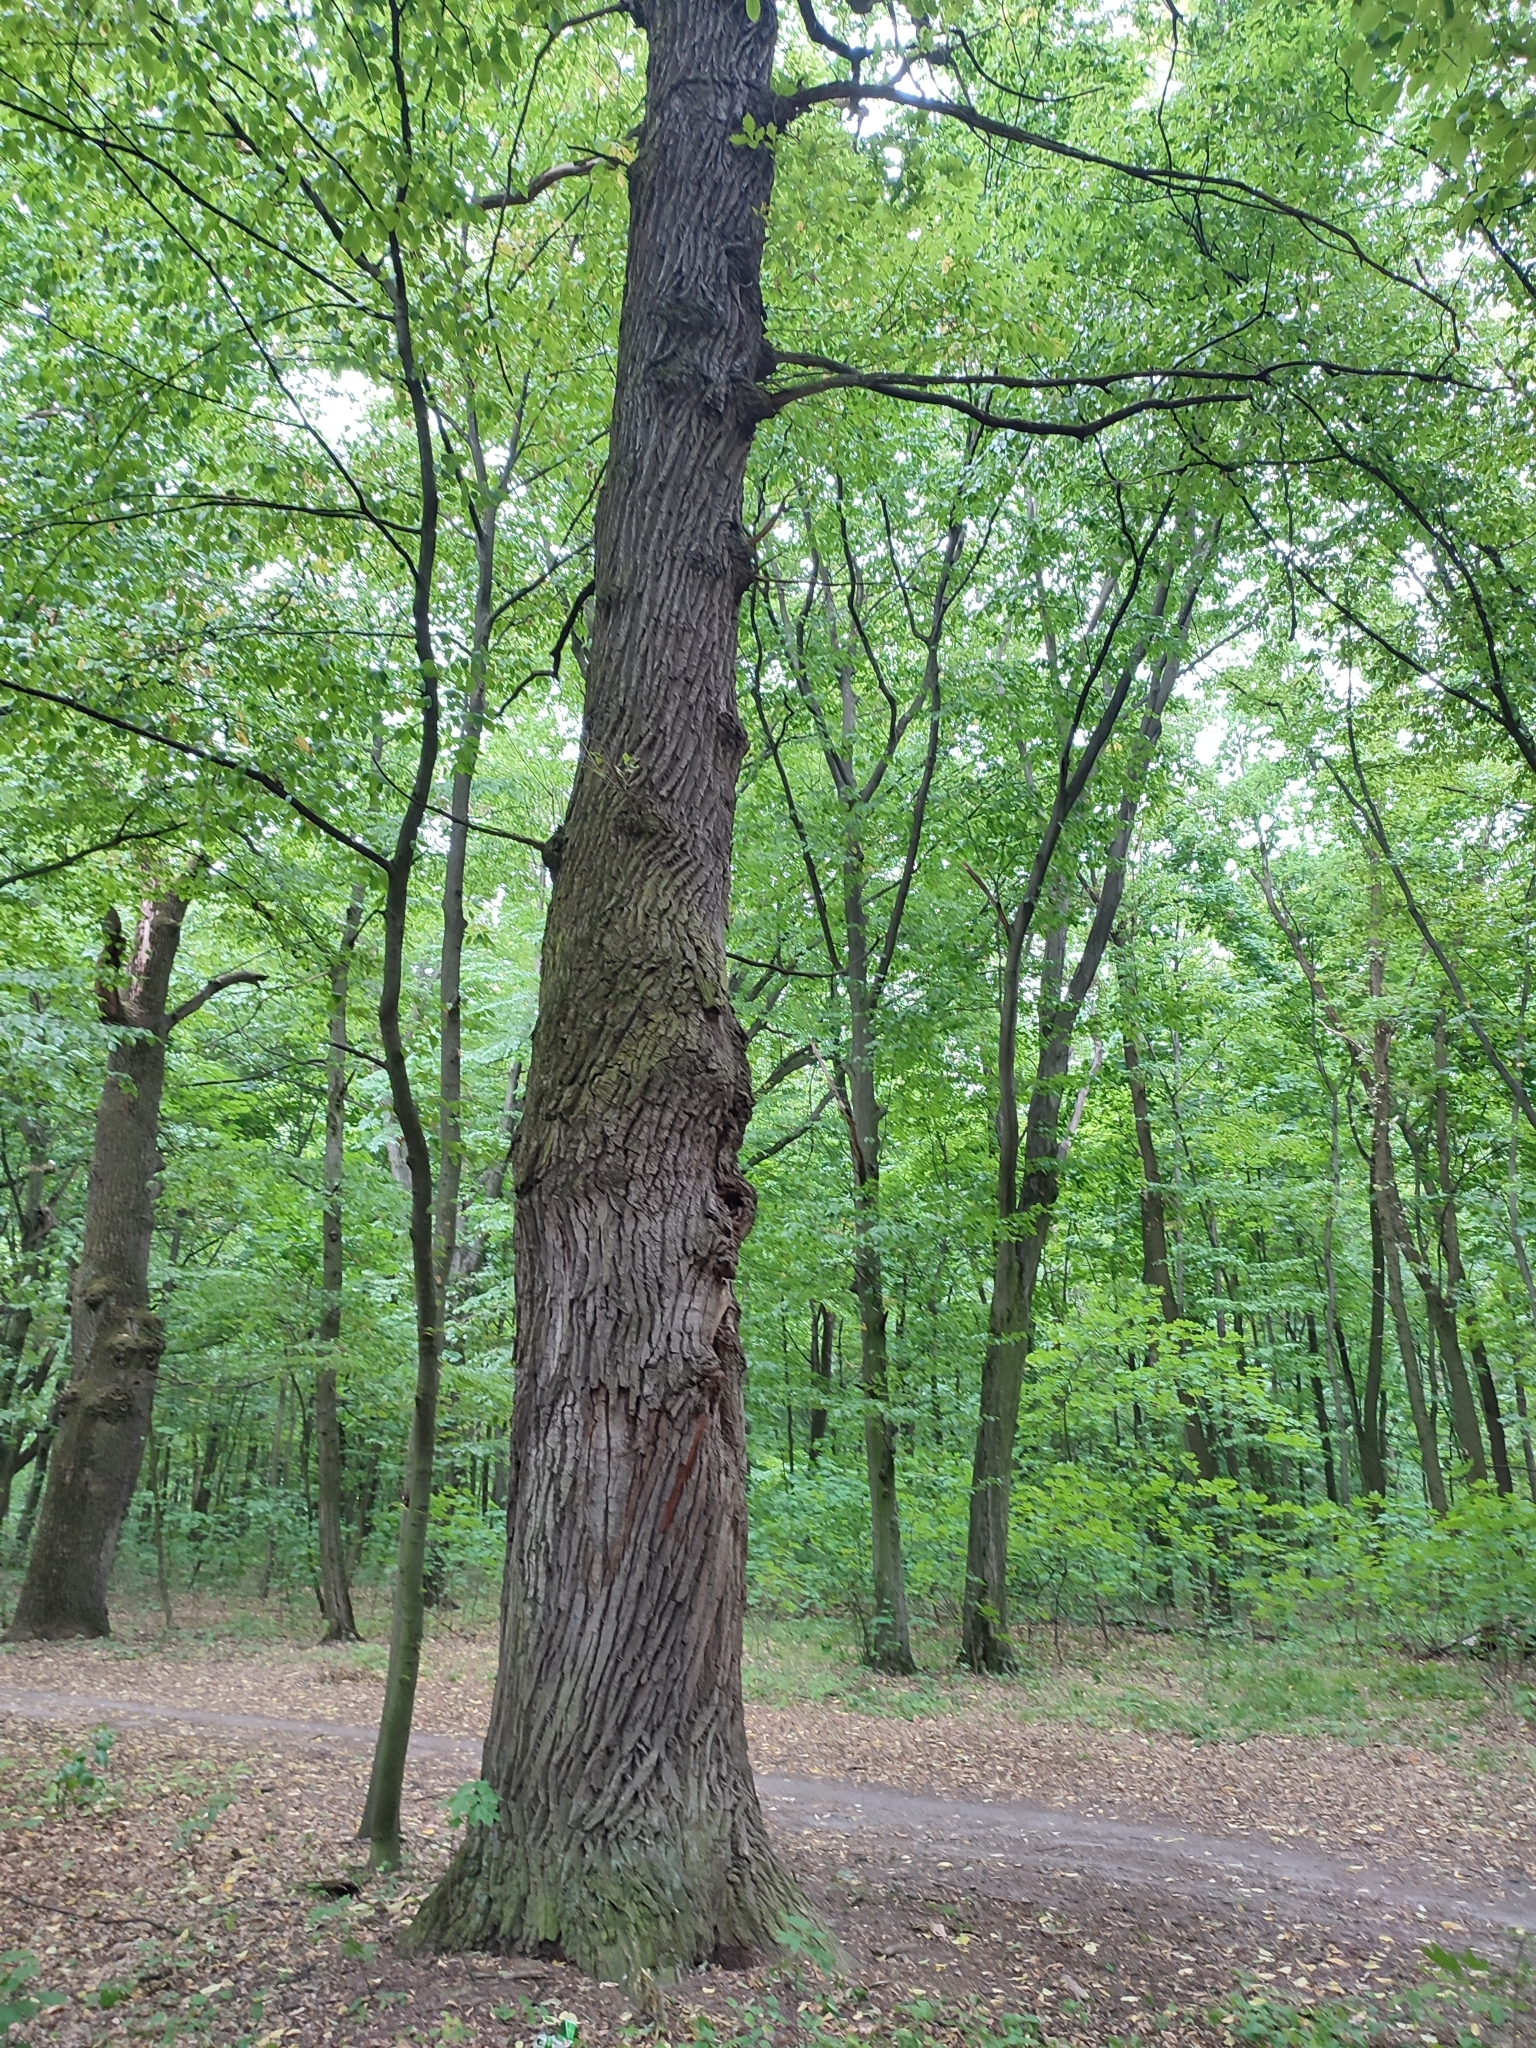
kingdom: Plantae
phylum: Tracheophyta
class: Magnoliopsida
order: Fagales
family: Fagaceae
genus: Quercus
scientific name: Quercus robur
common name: Pedunculate oak
